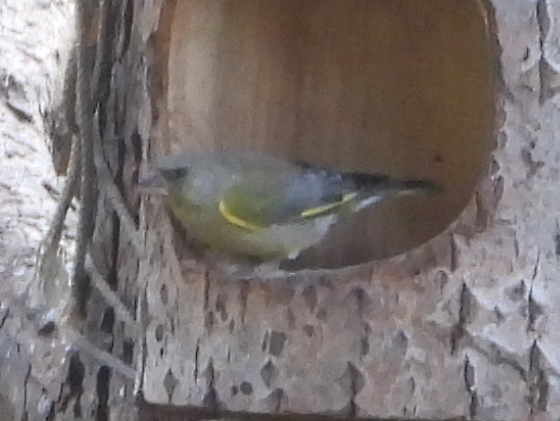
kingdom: Plantae
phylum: Tracheophyta
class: Liliopsida
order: Poales
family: Poaceae
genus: Chloris
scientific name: Chloris chloris
